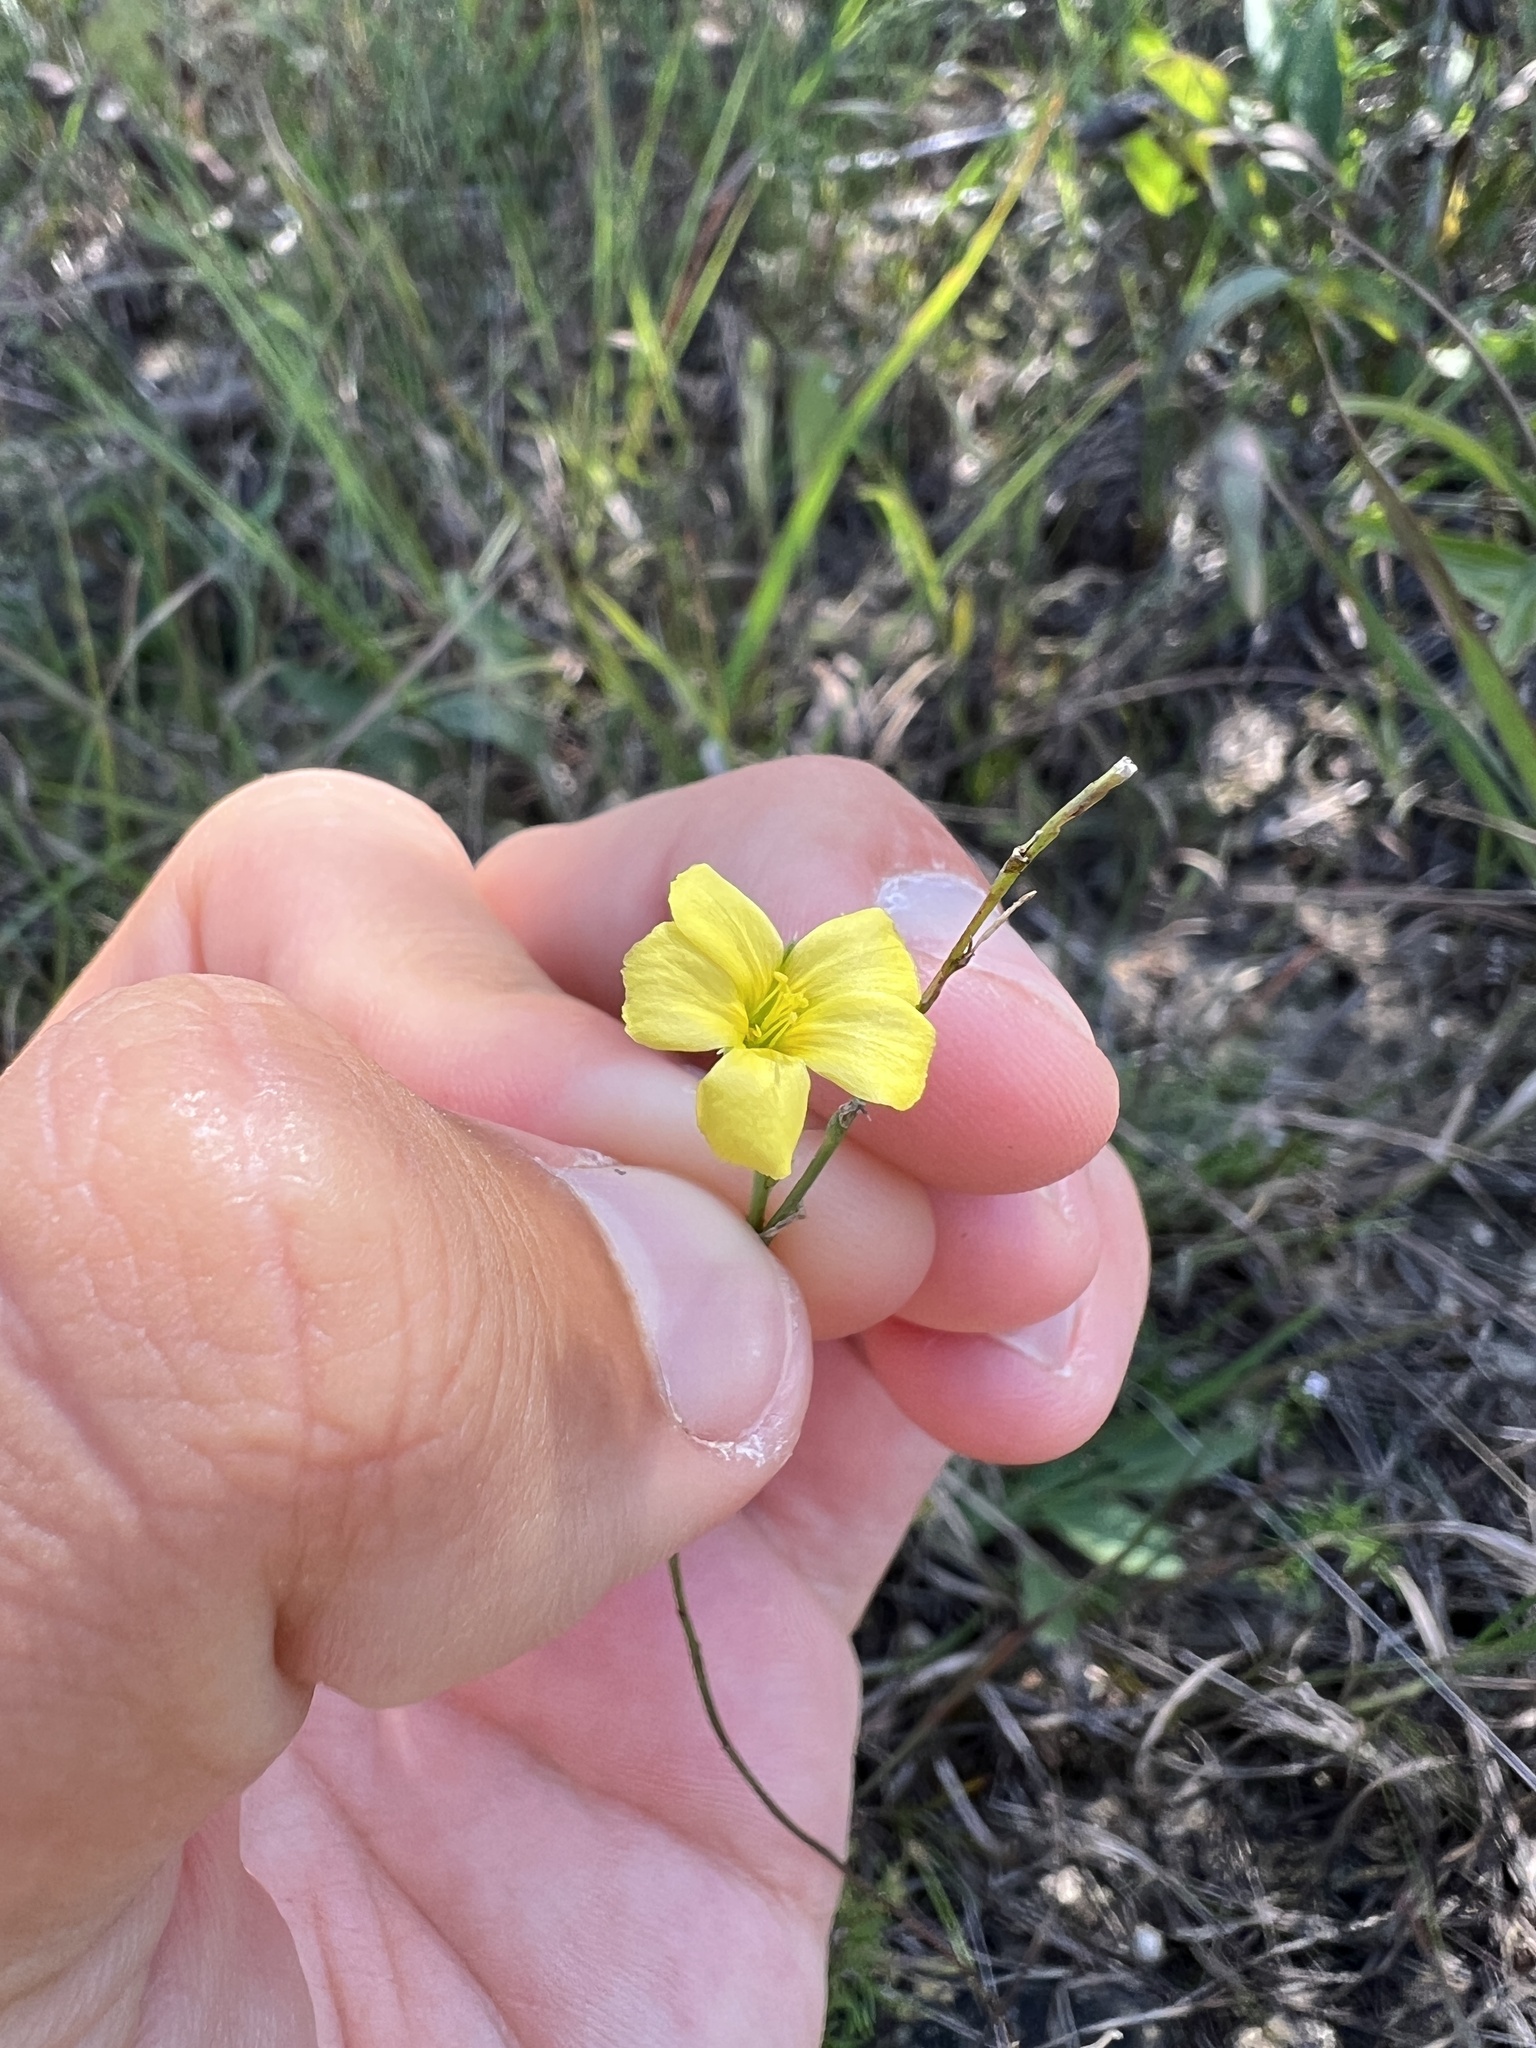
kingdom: Plantae
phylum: Tracheophyta
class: Magnoliopsida
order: Malpighiales
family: Linaceae
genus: Linum
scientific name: Linum medium
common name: Stiff yellow flax
